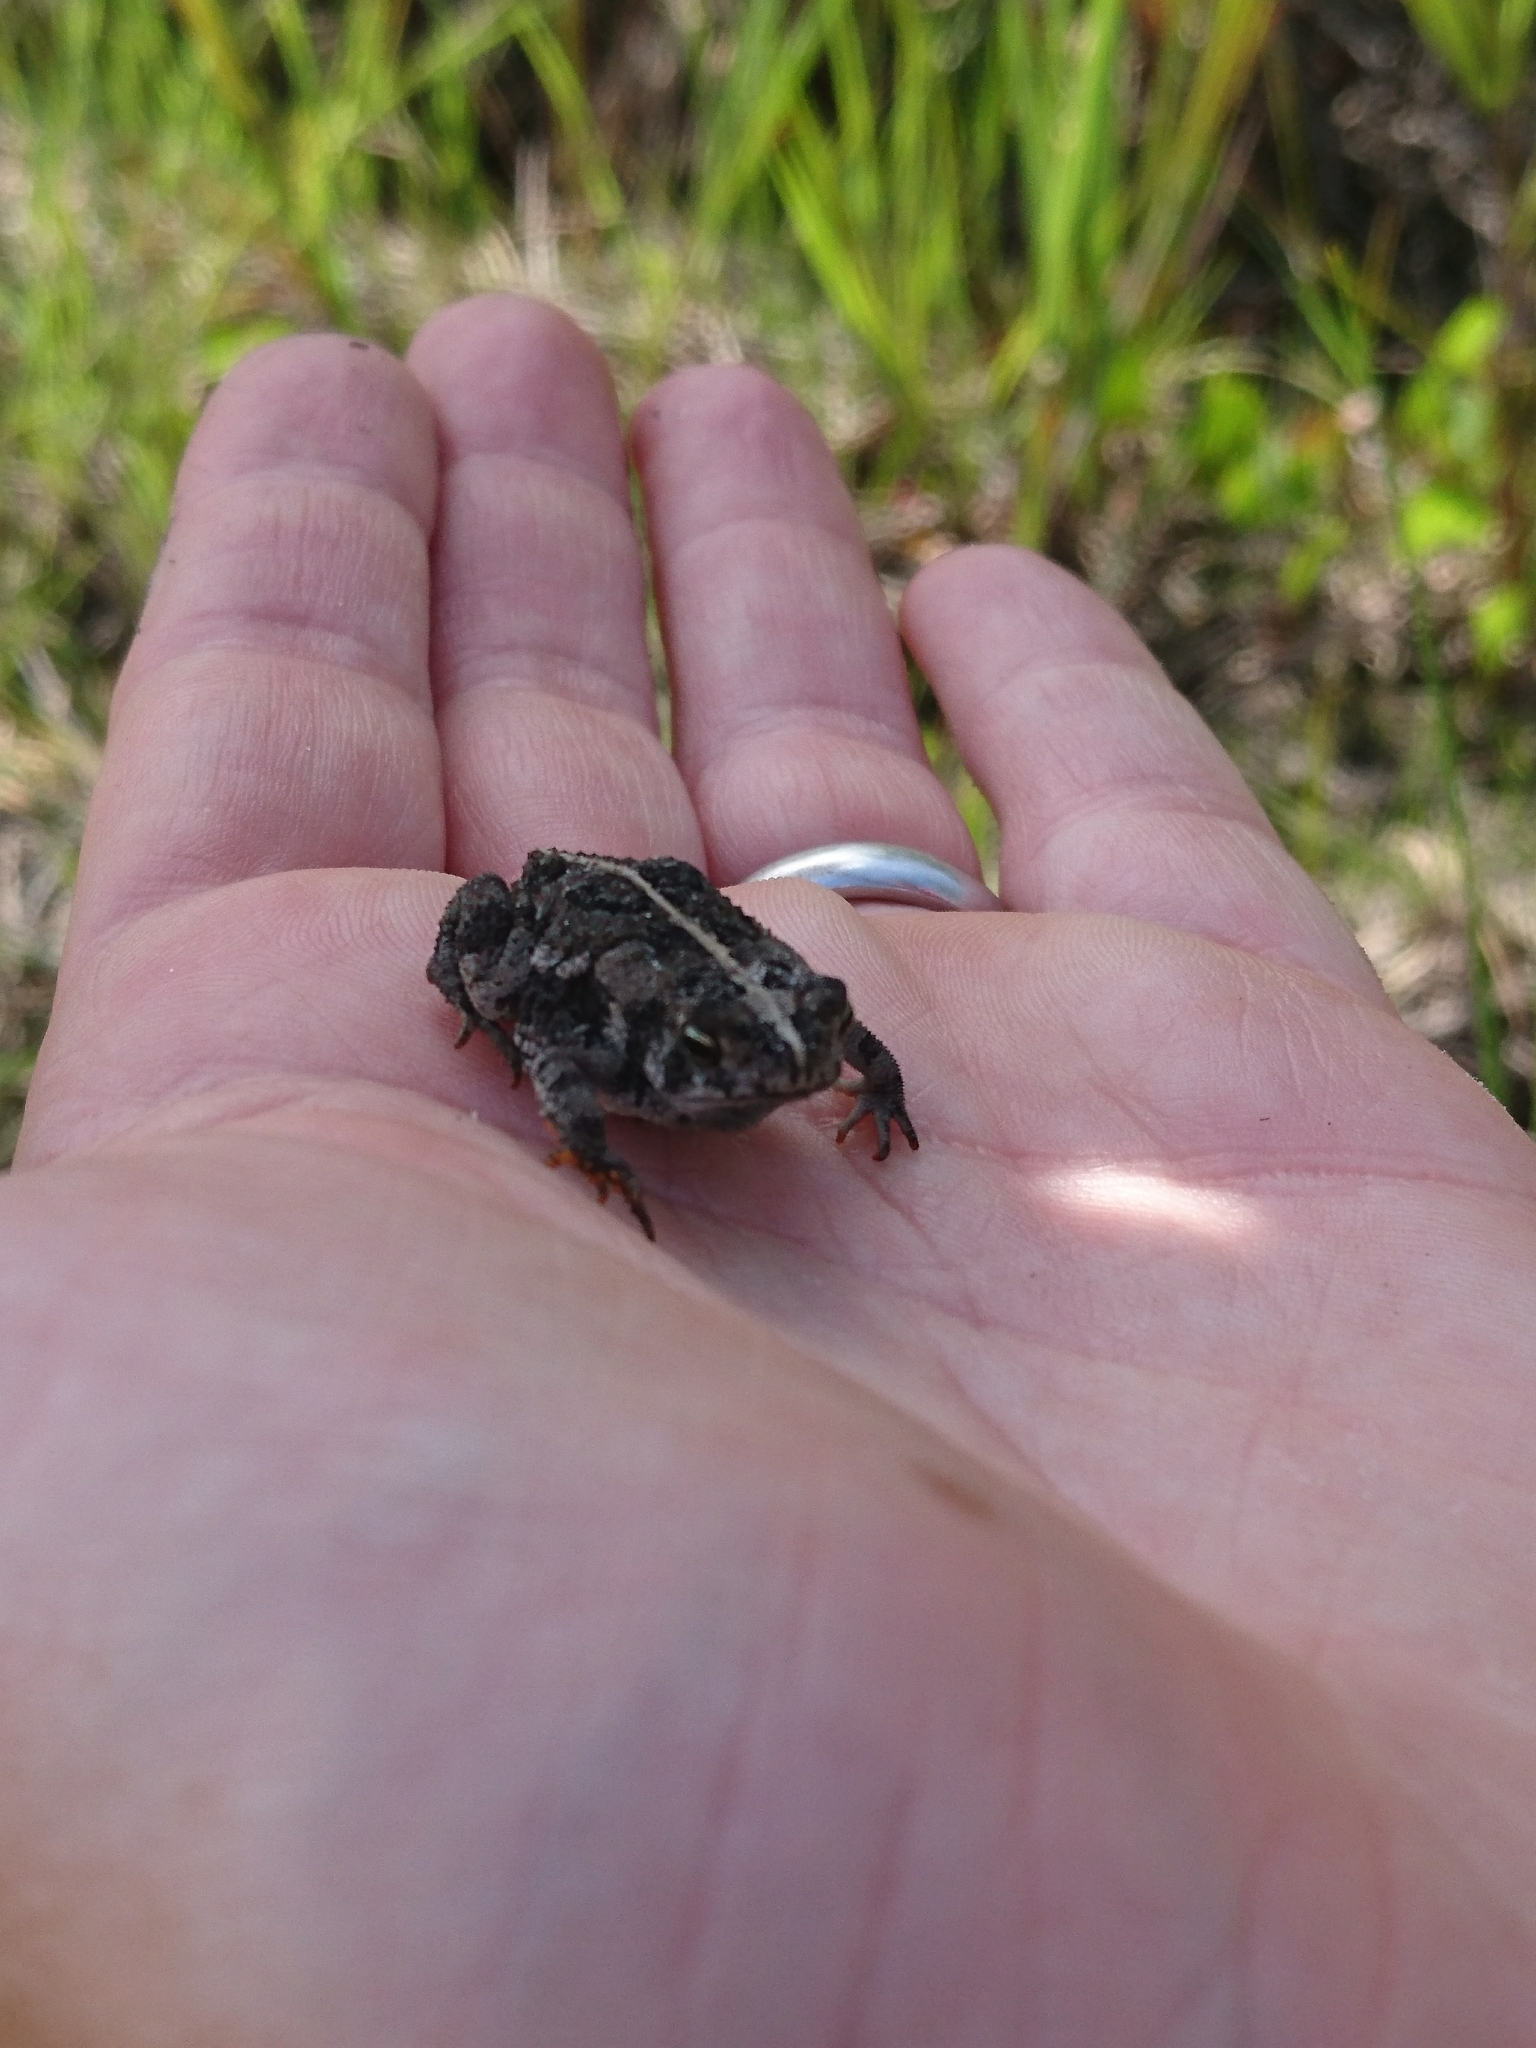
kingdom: Animalia
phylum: Chordata
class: Amphibia
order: Anura
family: Bufonidae
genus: Anaxyrus
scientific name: Anaxyrus quercicus
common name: Oak toad
